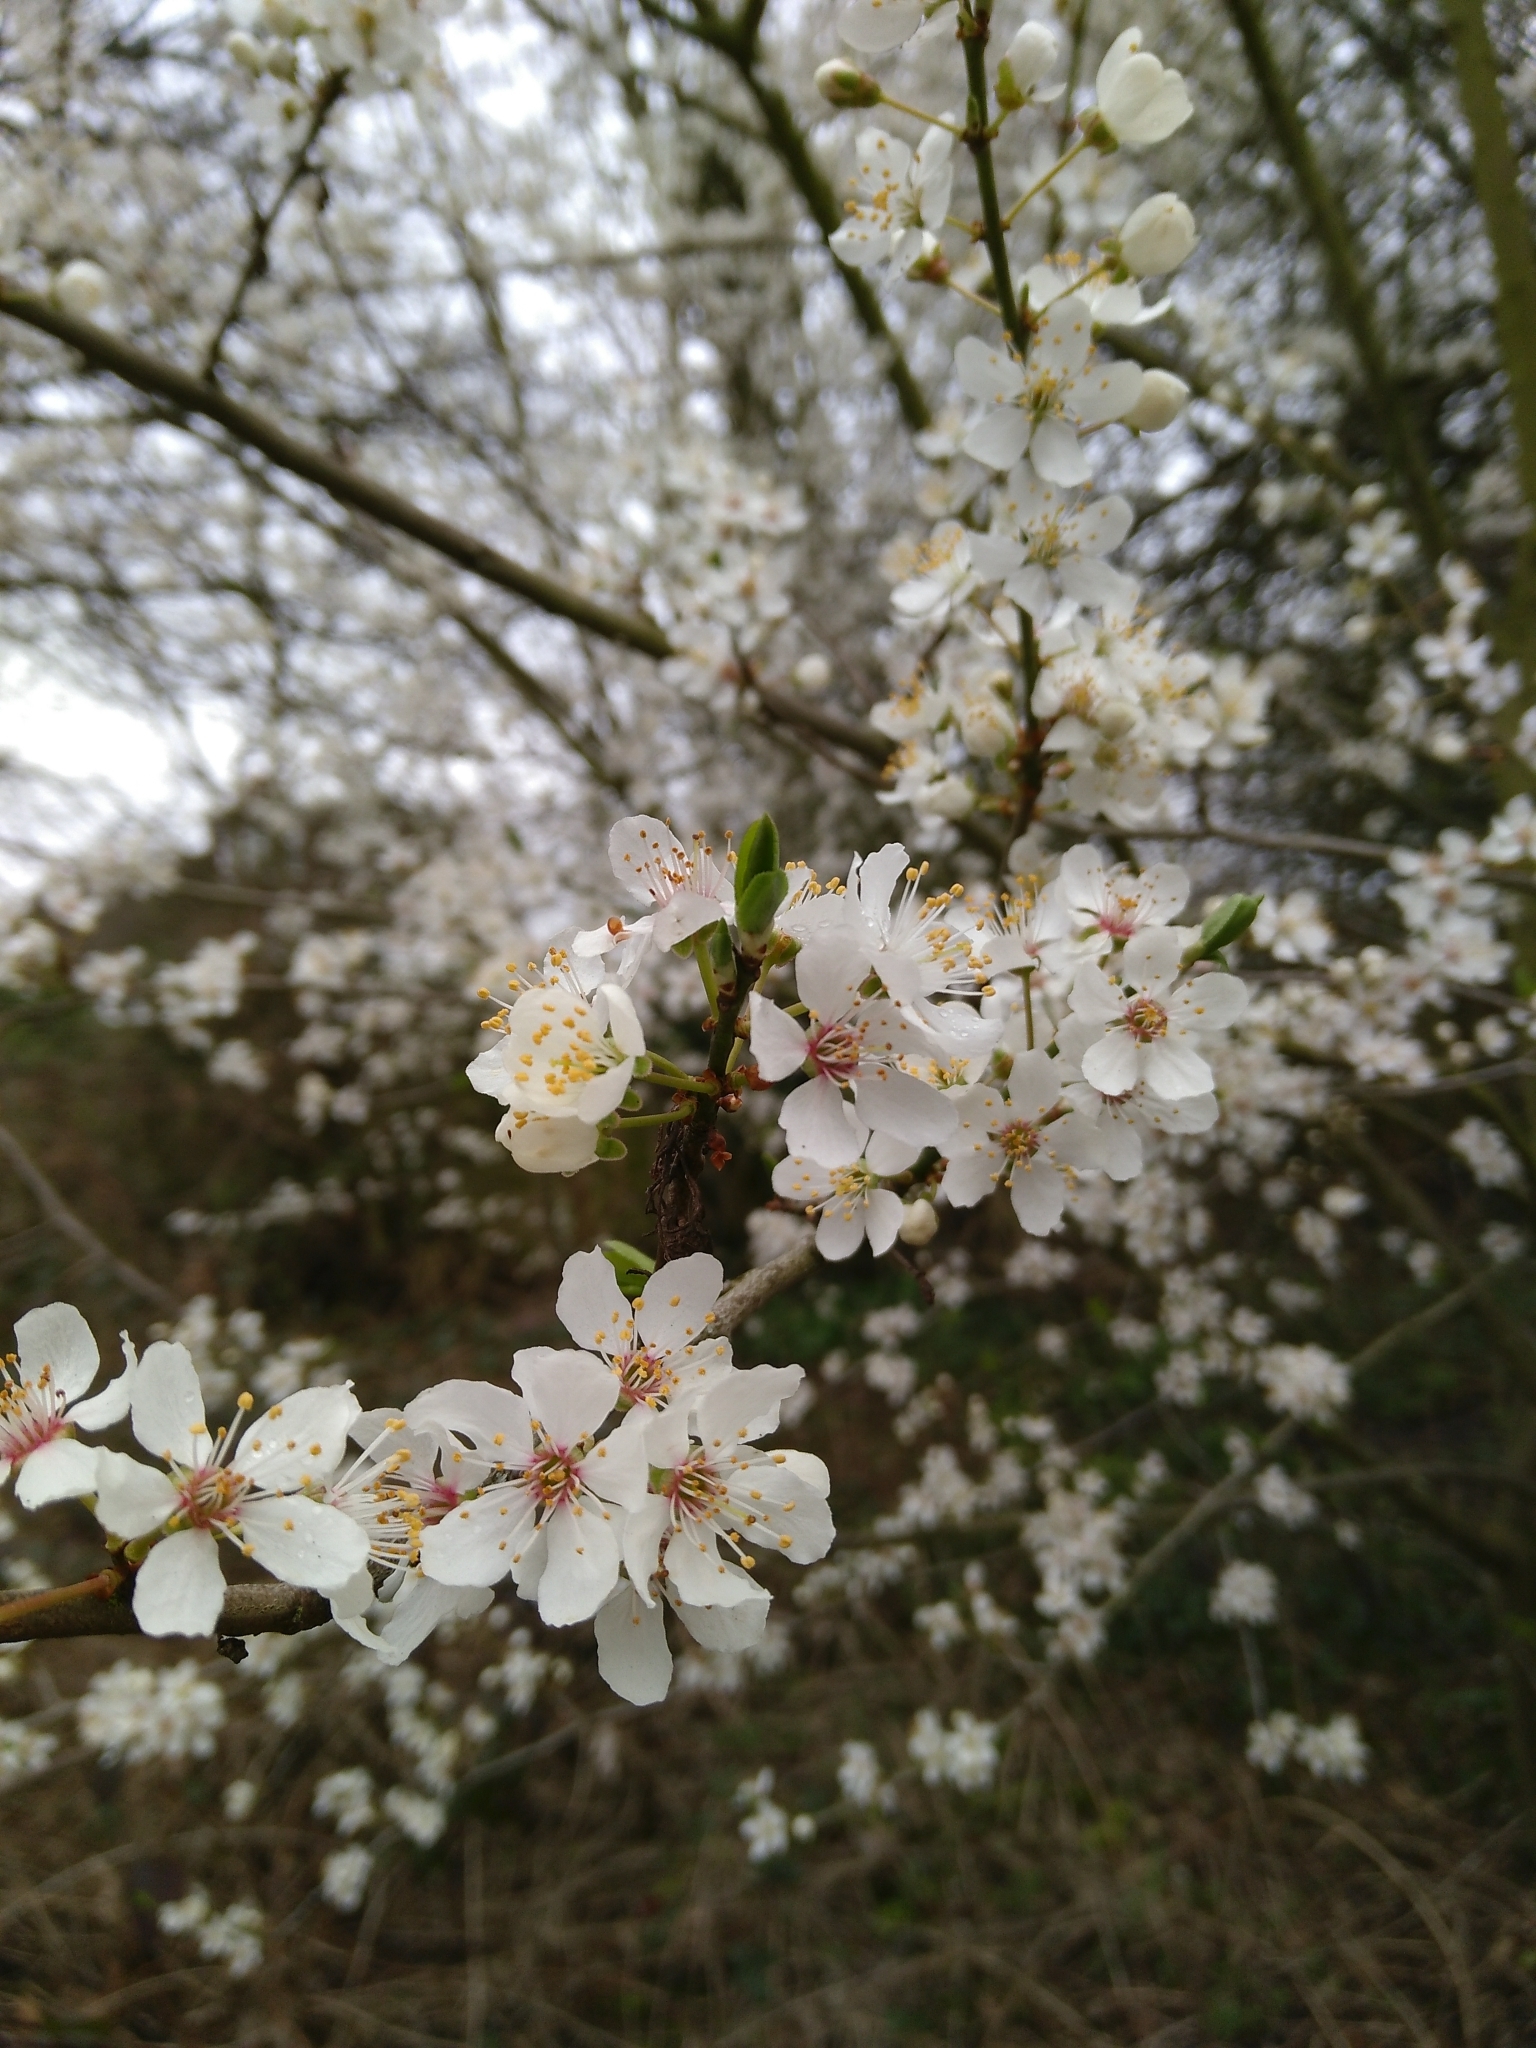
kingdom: Plantae
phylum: Tracheophyta
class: Magnoliopsida
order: Rosales
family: Rosaceae
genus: Prunus
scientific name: Prunus cerasifera
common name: Cherry plum
